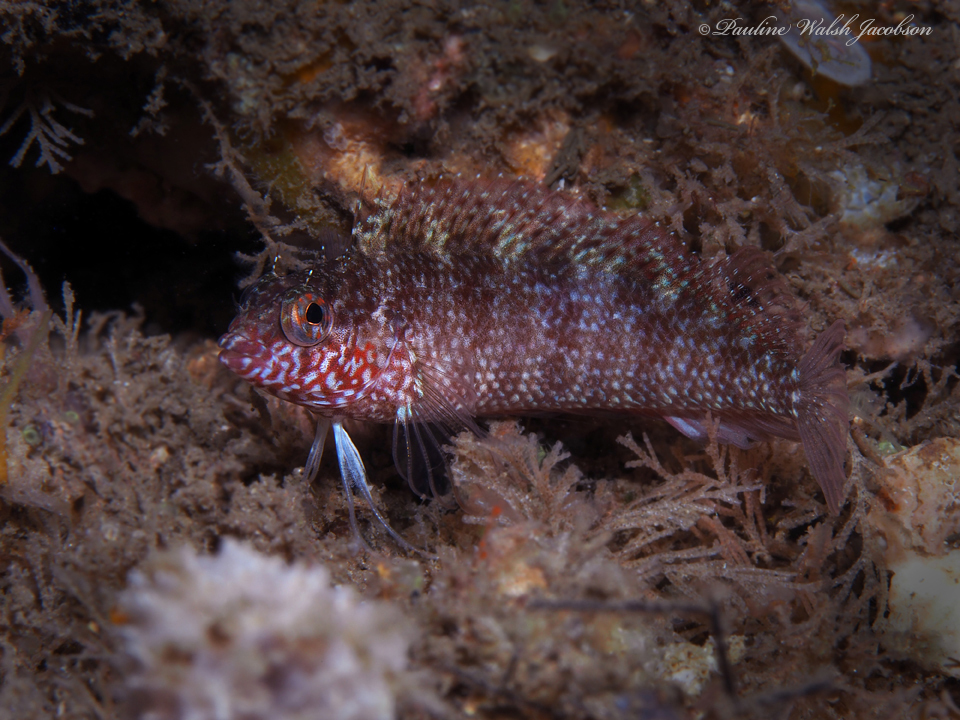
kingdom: Animalia
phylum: Chordata
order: Perciformes
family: Labrisomidae
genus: Malacoctenus
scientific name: Malacoctenus macropus
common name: Rosy blenny
